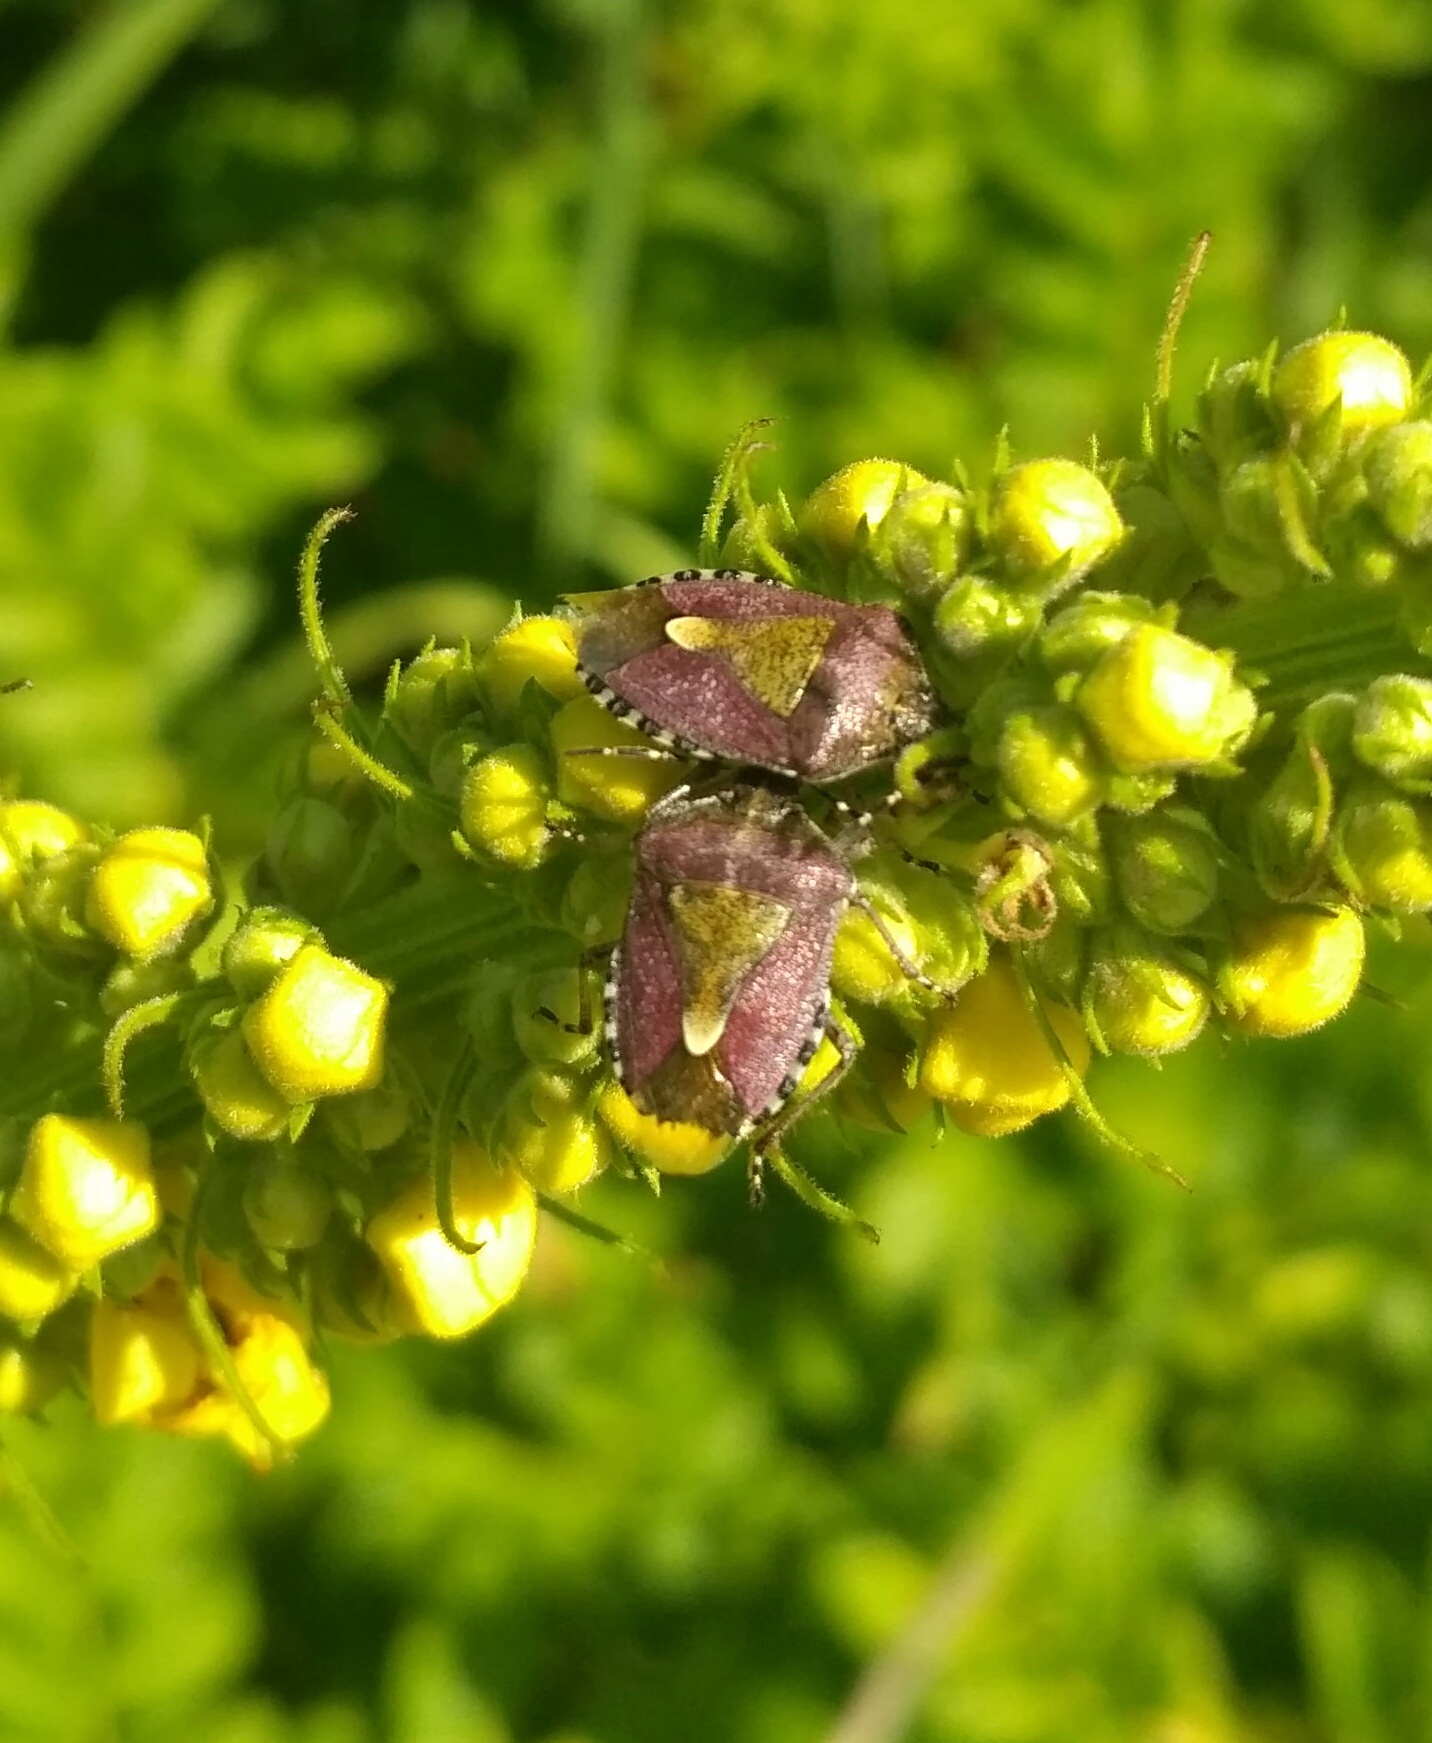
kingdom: Animalia
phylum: Arthropoda
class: Insecta
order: Hemiptera
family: Pentatomidae
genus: Dolycoris
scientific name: Dolycoris baccarum
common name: Sloe bug
